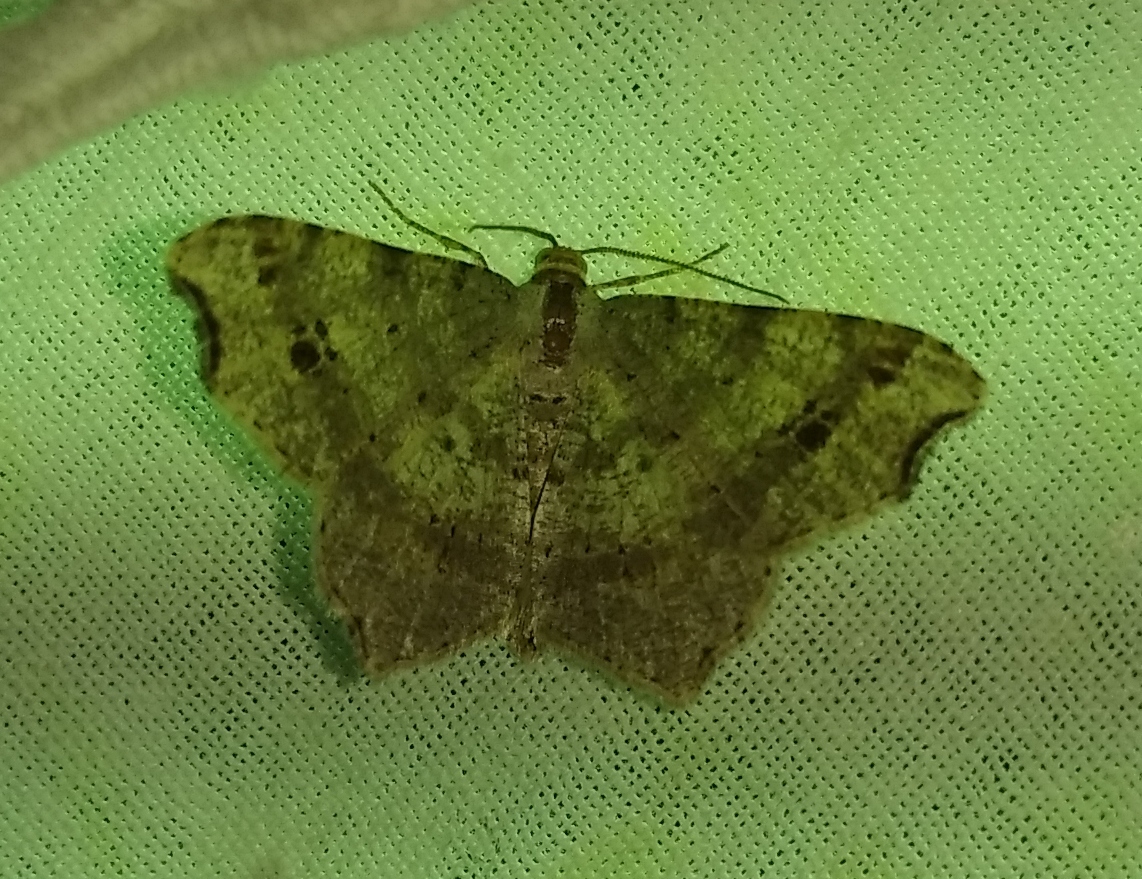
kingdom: Animalia
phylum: Arthropoda
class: Insecta
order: Lepidoptera
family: Geometridae
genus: Macaria
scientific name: Macaria alternata
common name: Sharp-angled peacock
